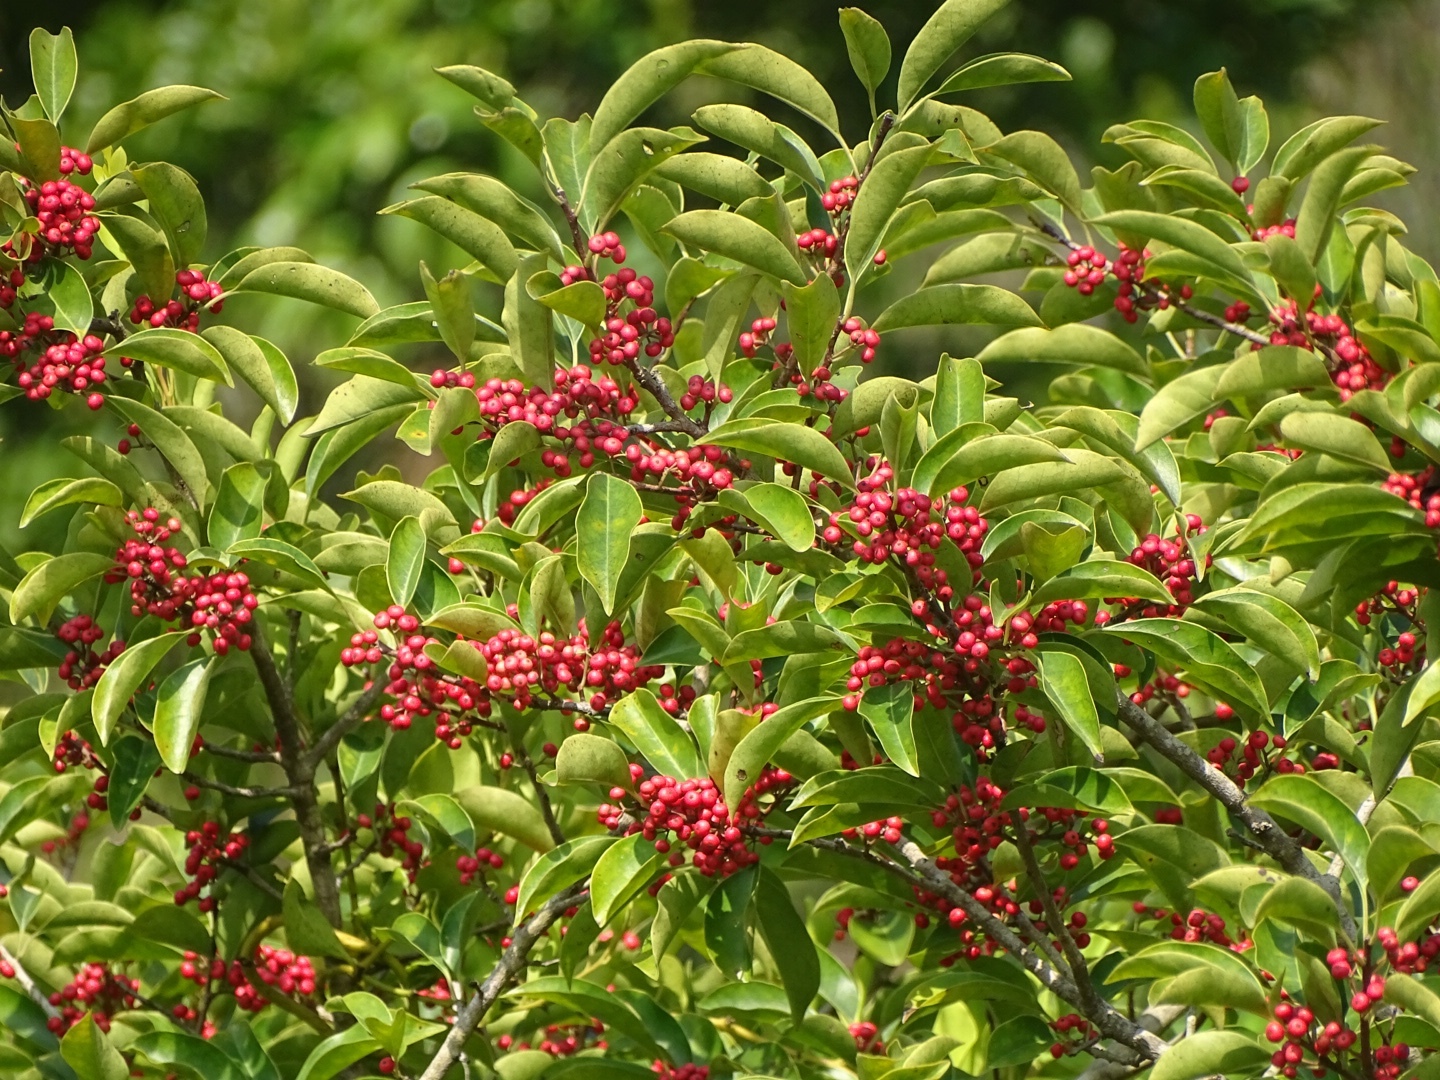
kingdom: Plantae
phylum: Tracheophyta
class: Magnoliopsida
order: Aquifoliales
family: Aquifoliaceae
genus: Ilex
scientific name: Ilex rotunda
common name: Kurogane holly
